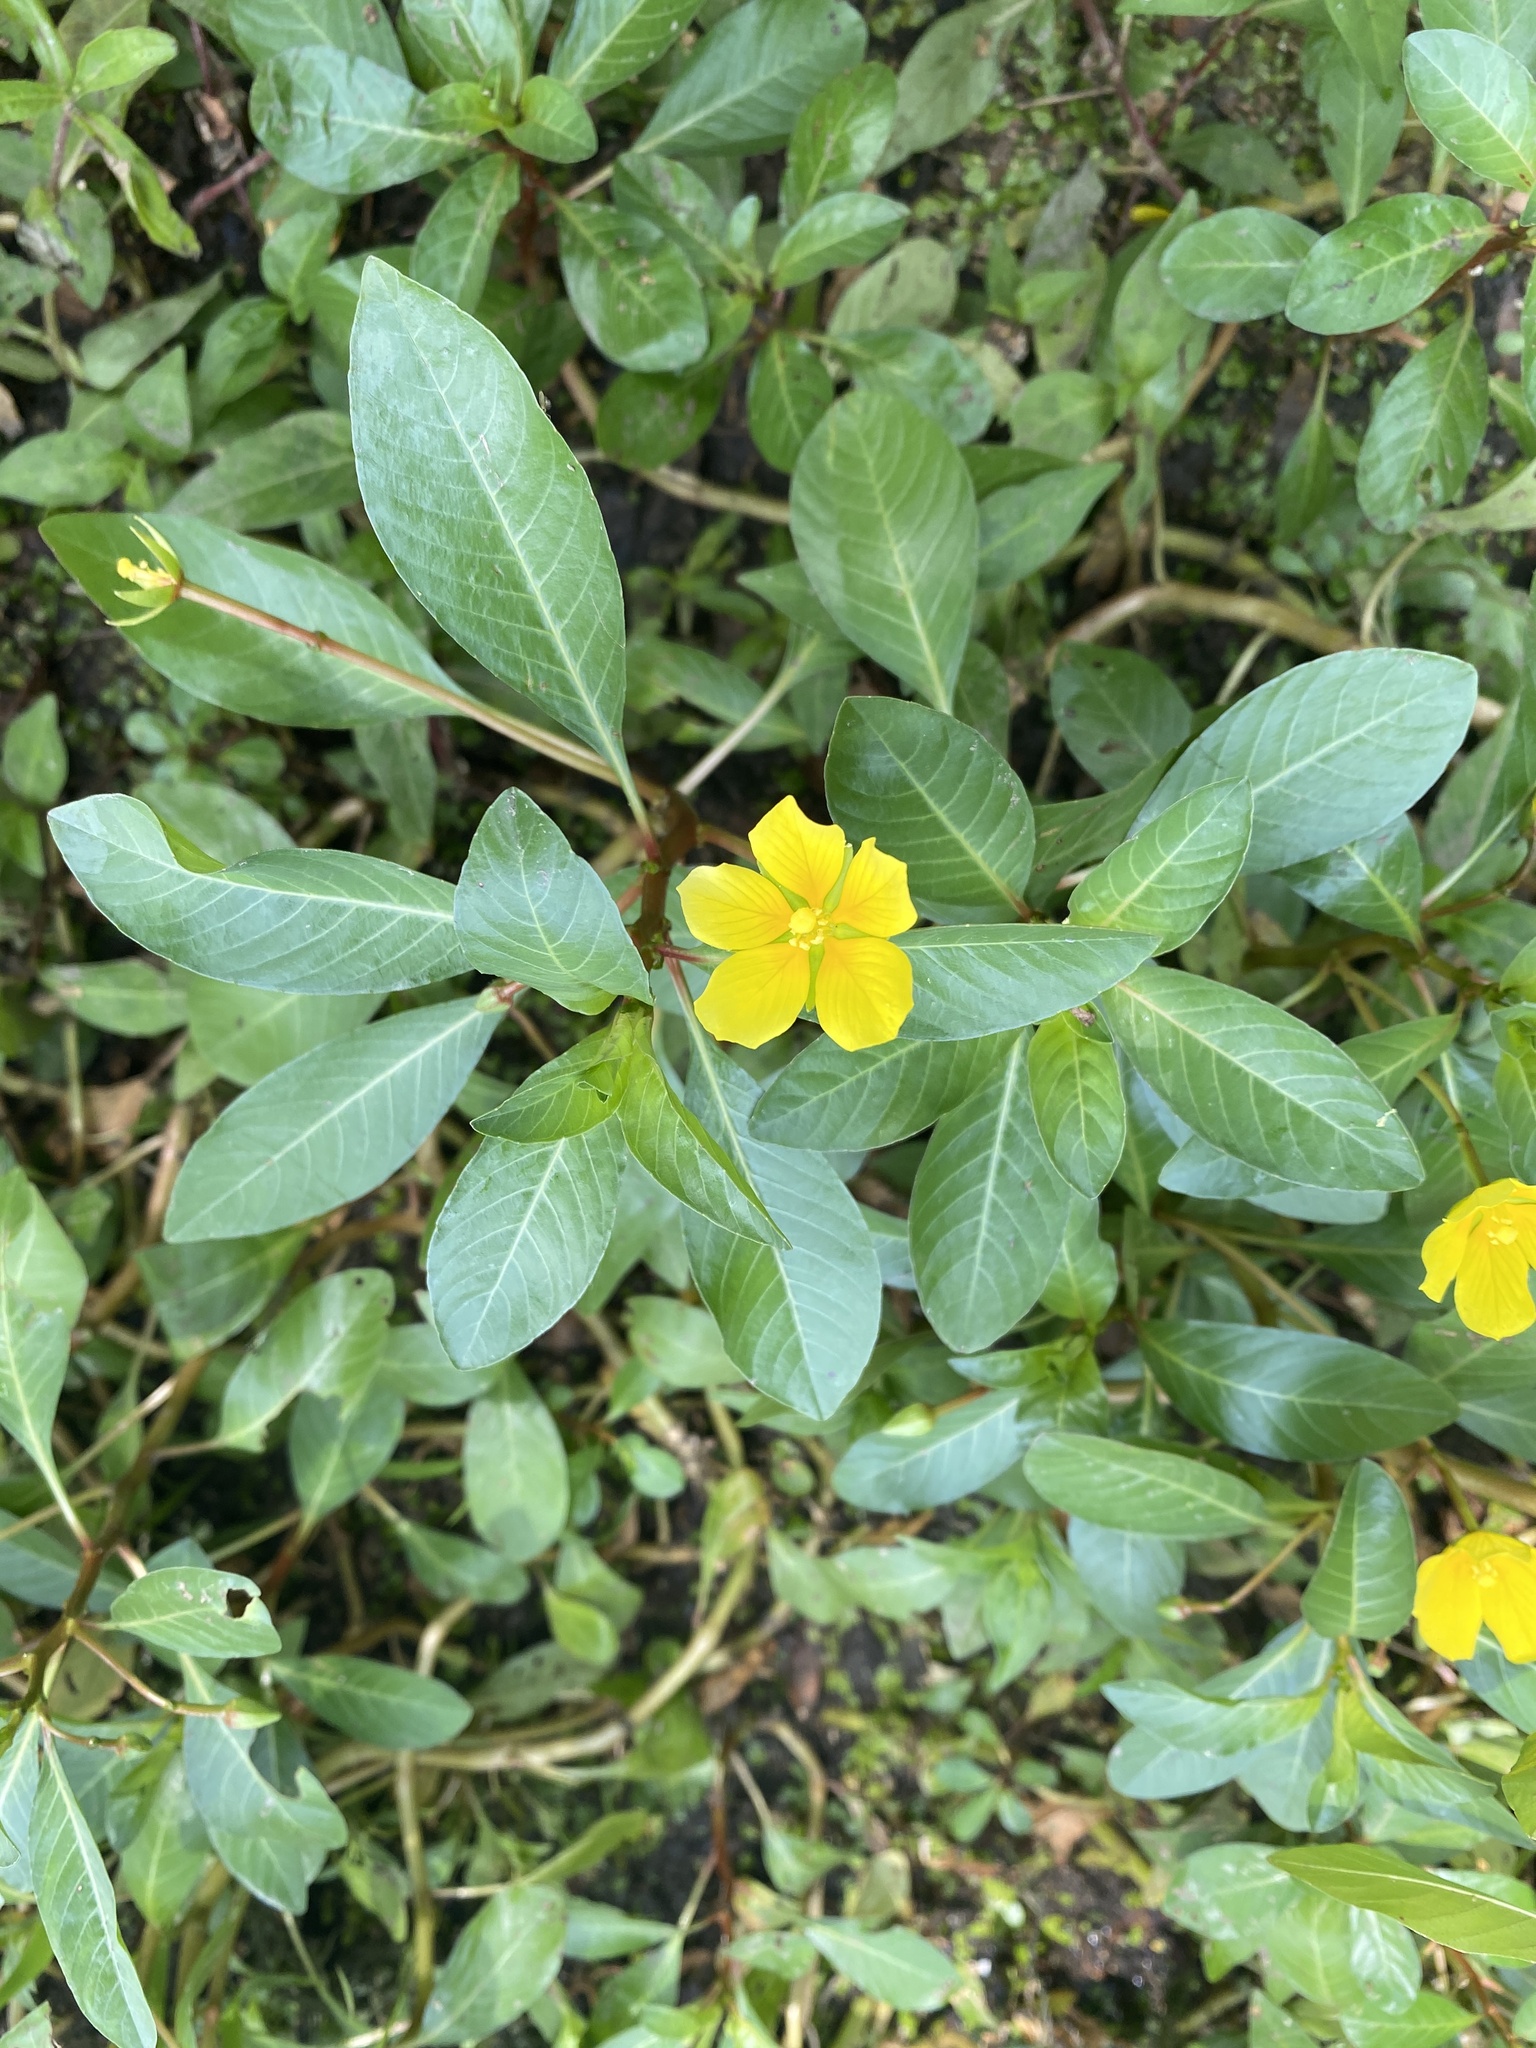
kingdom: Plantae
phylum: Tracheophyta
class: Magnoliopsida
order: Myrtales
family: Onagraceae
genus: Ludwigia
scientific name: Ludwigia peploides
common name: Floating primrose-willow
